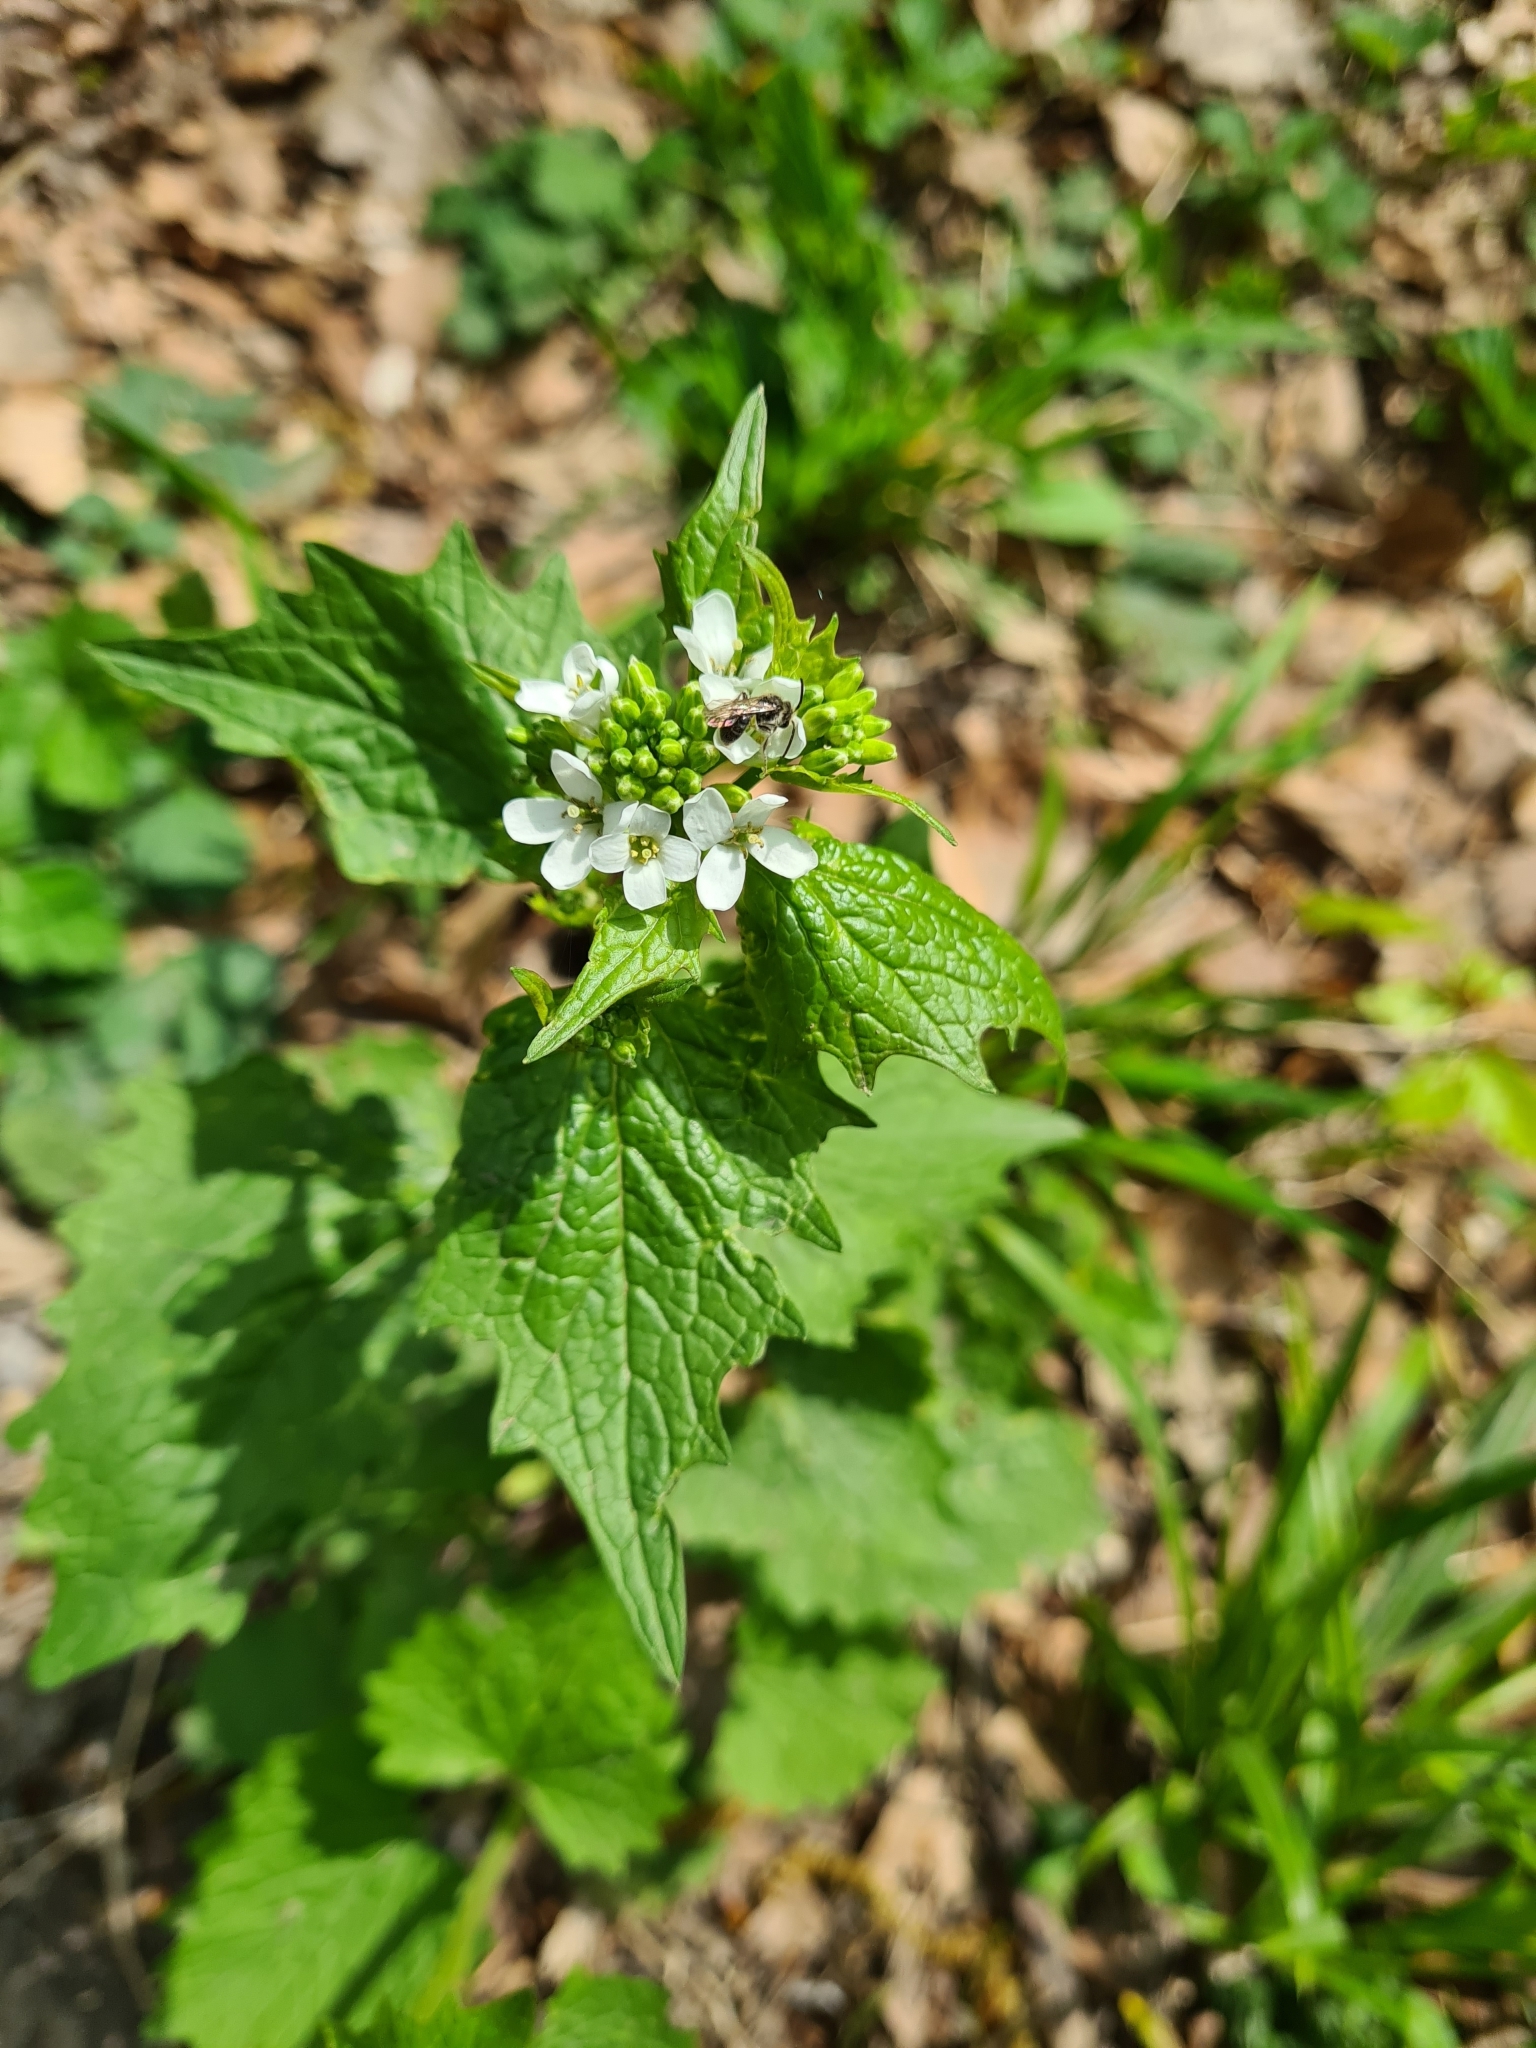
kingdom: Plantae
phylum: Tracheophyta
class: Magnoliopsida
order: Brassicales
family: Brassicaceae
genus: Alliaria
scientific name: Alliaria petiolata
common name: Garlic mustard
